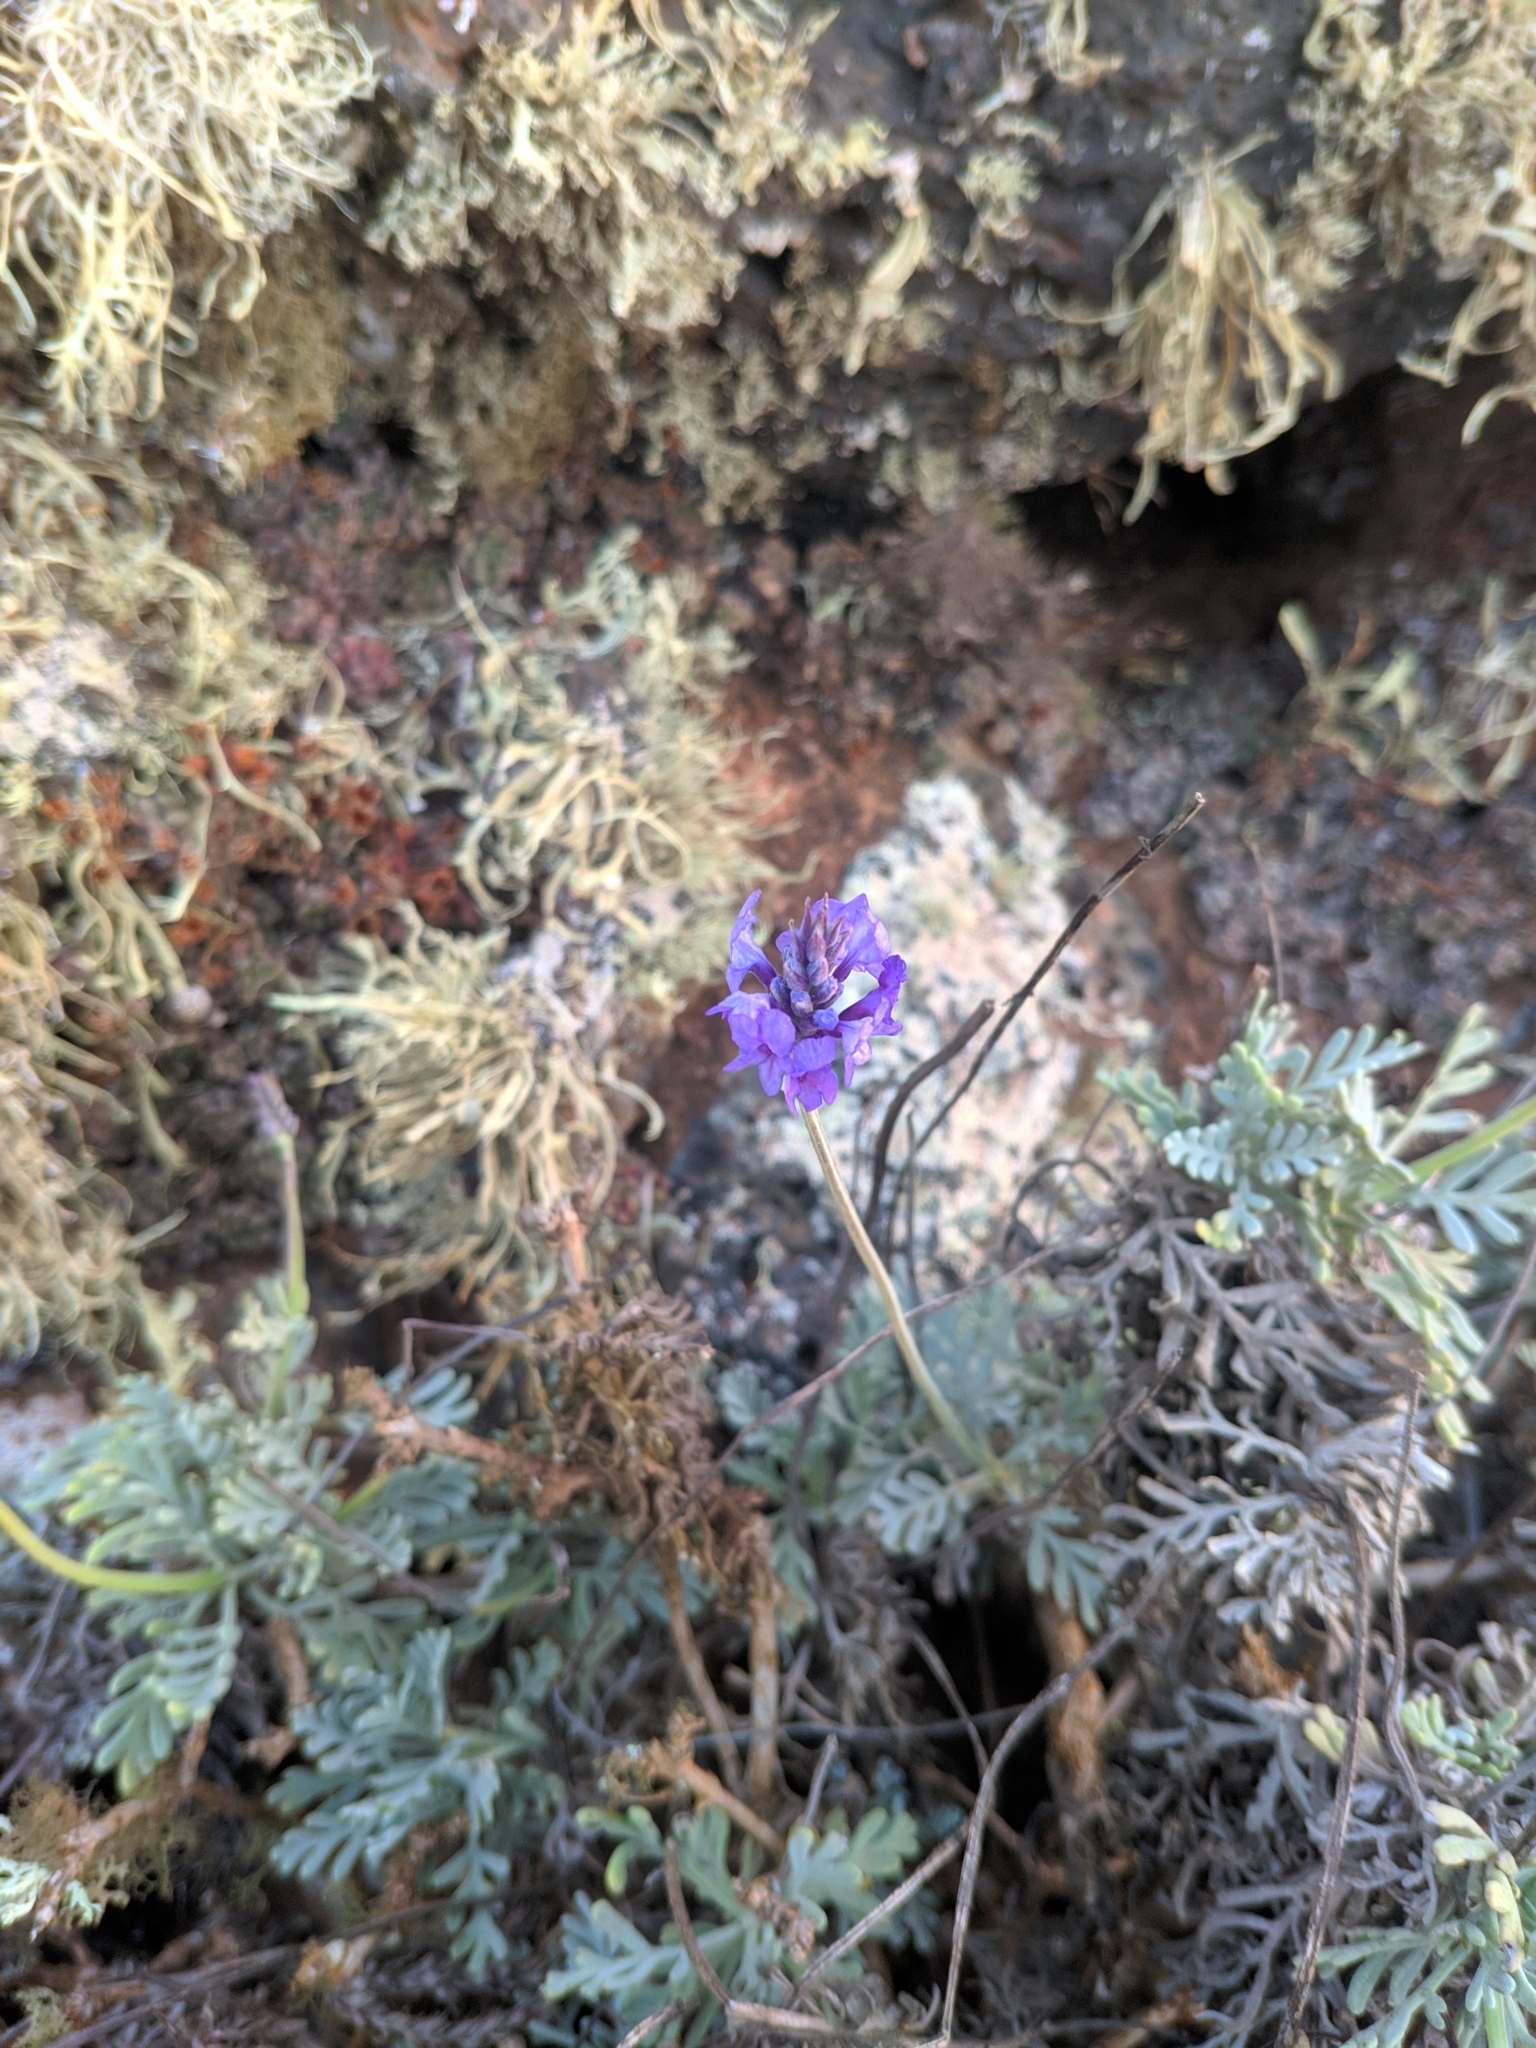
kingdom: Plantae
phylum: Tracheophyta
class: Magnoliopsida
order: Lamiales
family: Lamiaceae
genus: Lavandula
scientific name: Lavandula pinnata
